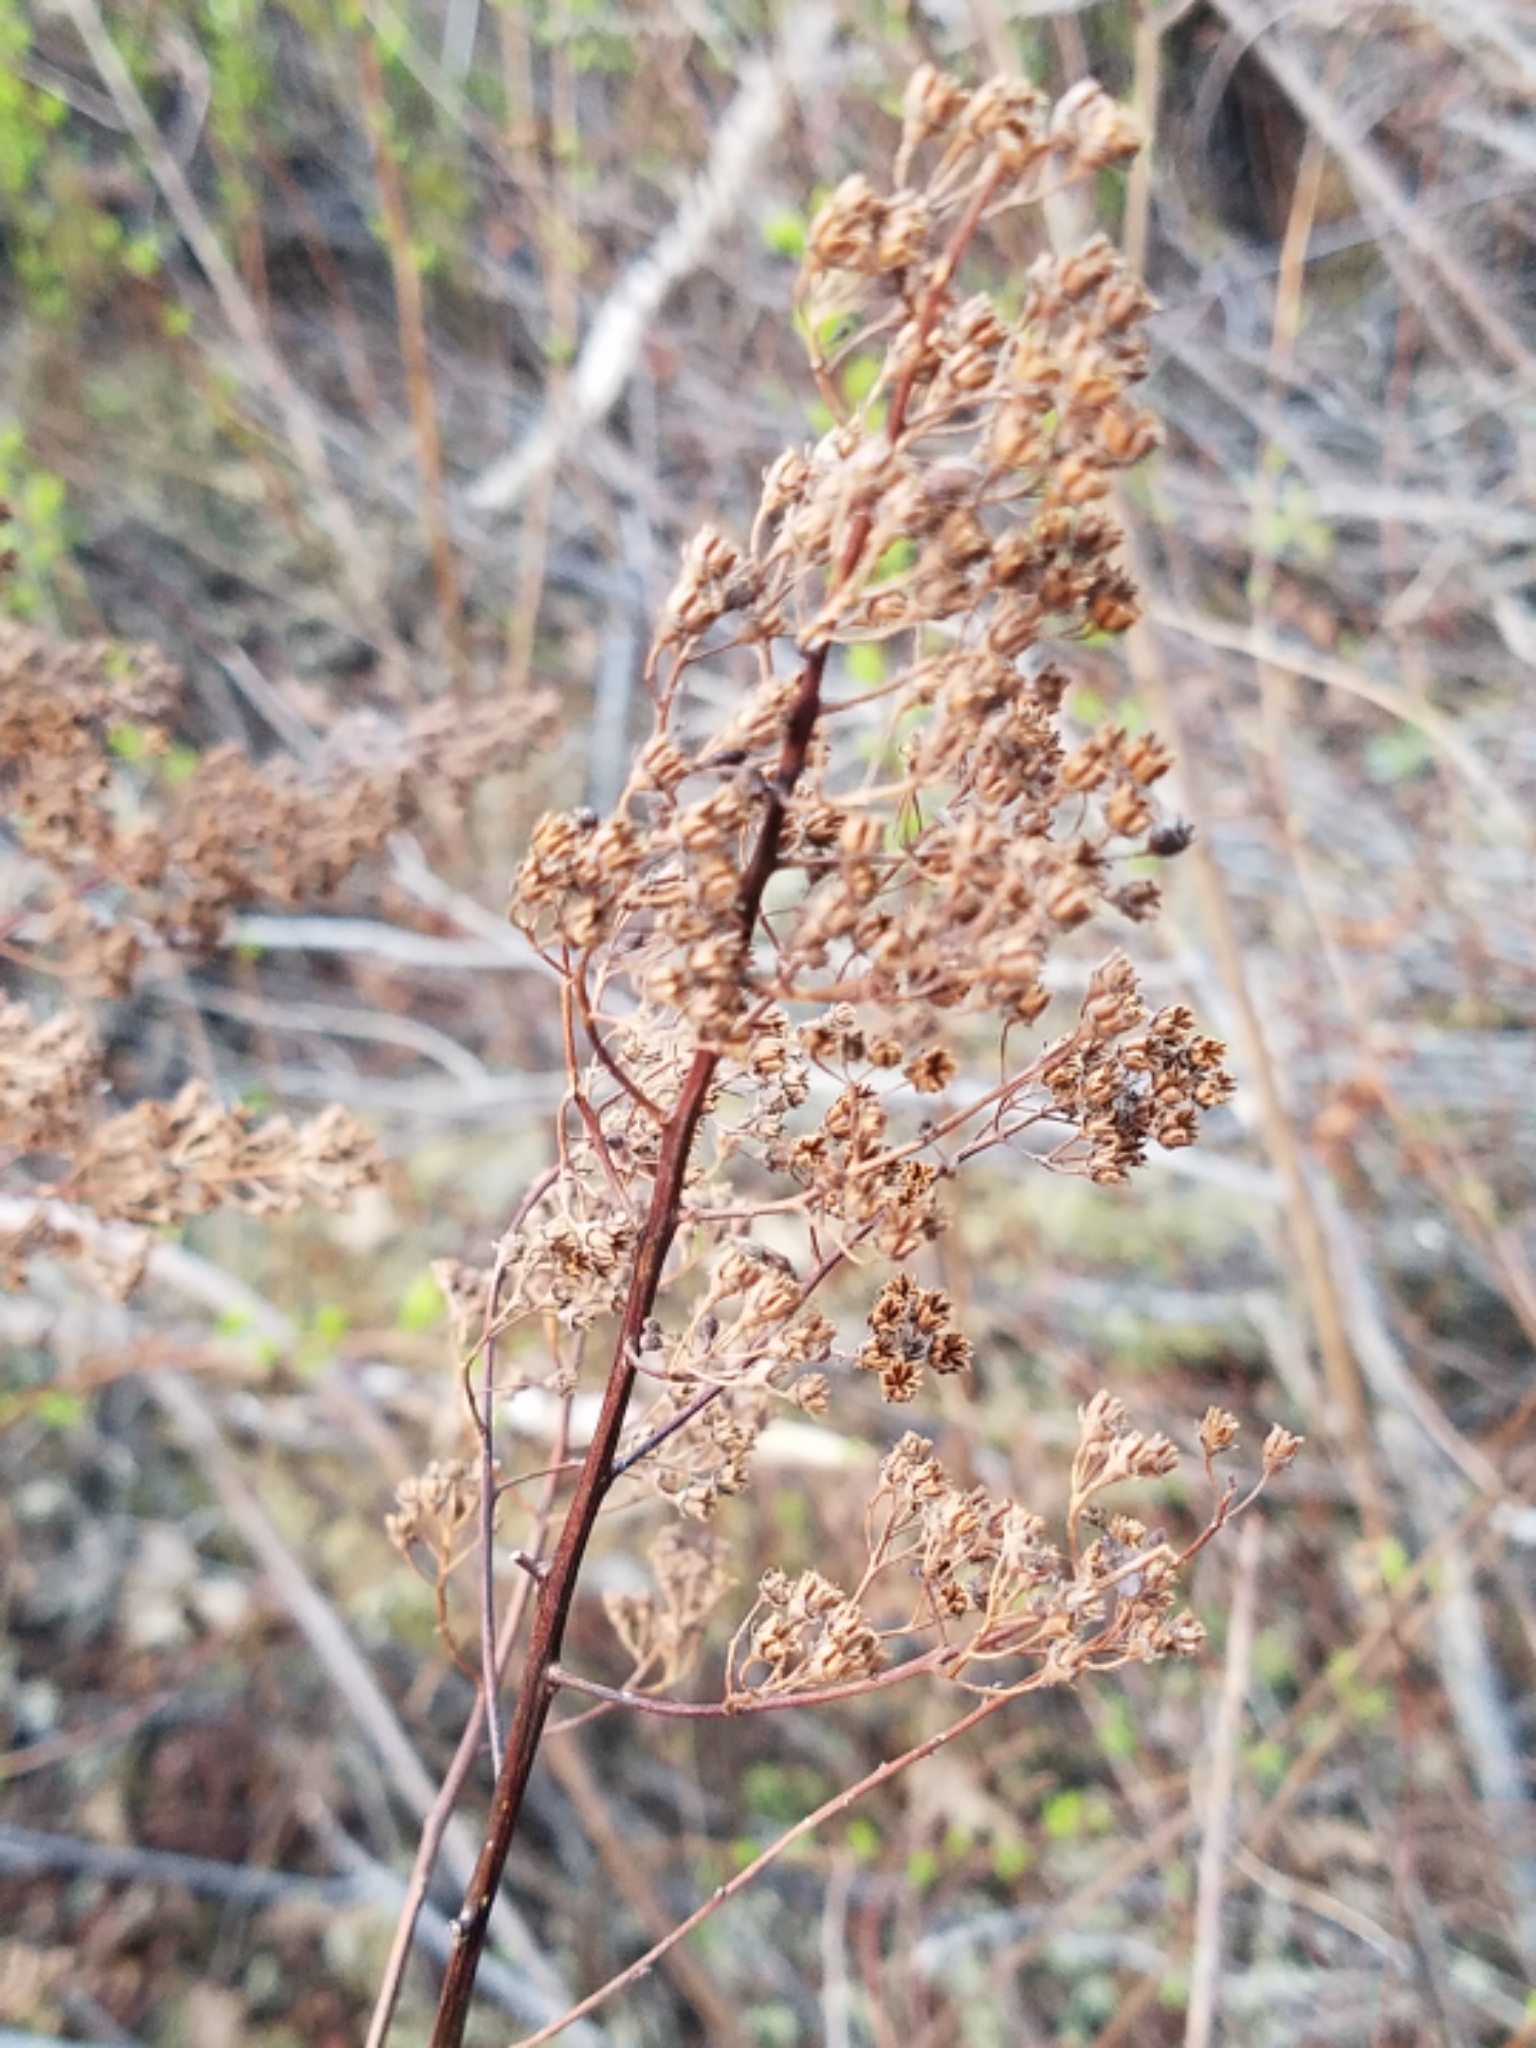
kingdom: Plantae
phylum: Tracheophyta
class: Magnoliopsida
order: Rosales
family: Rosaceae
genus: Spiraea
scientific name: Spiraea alba
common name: Pale bridewort
